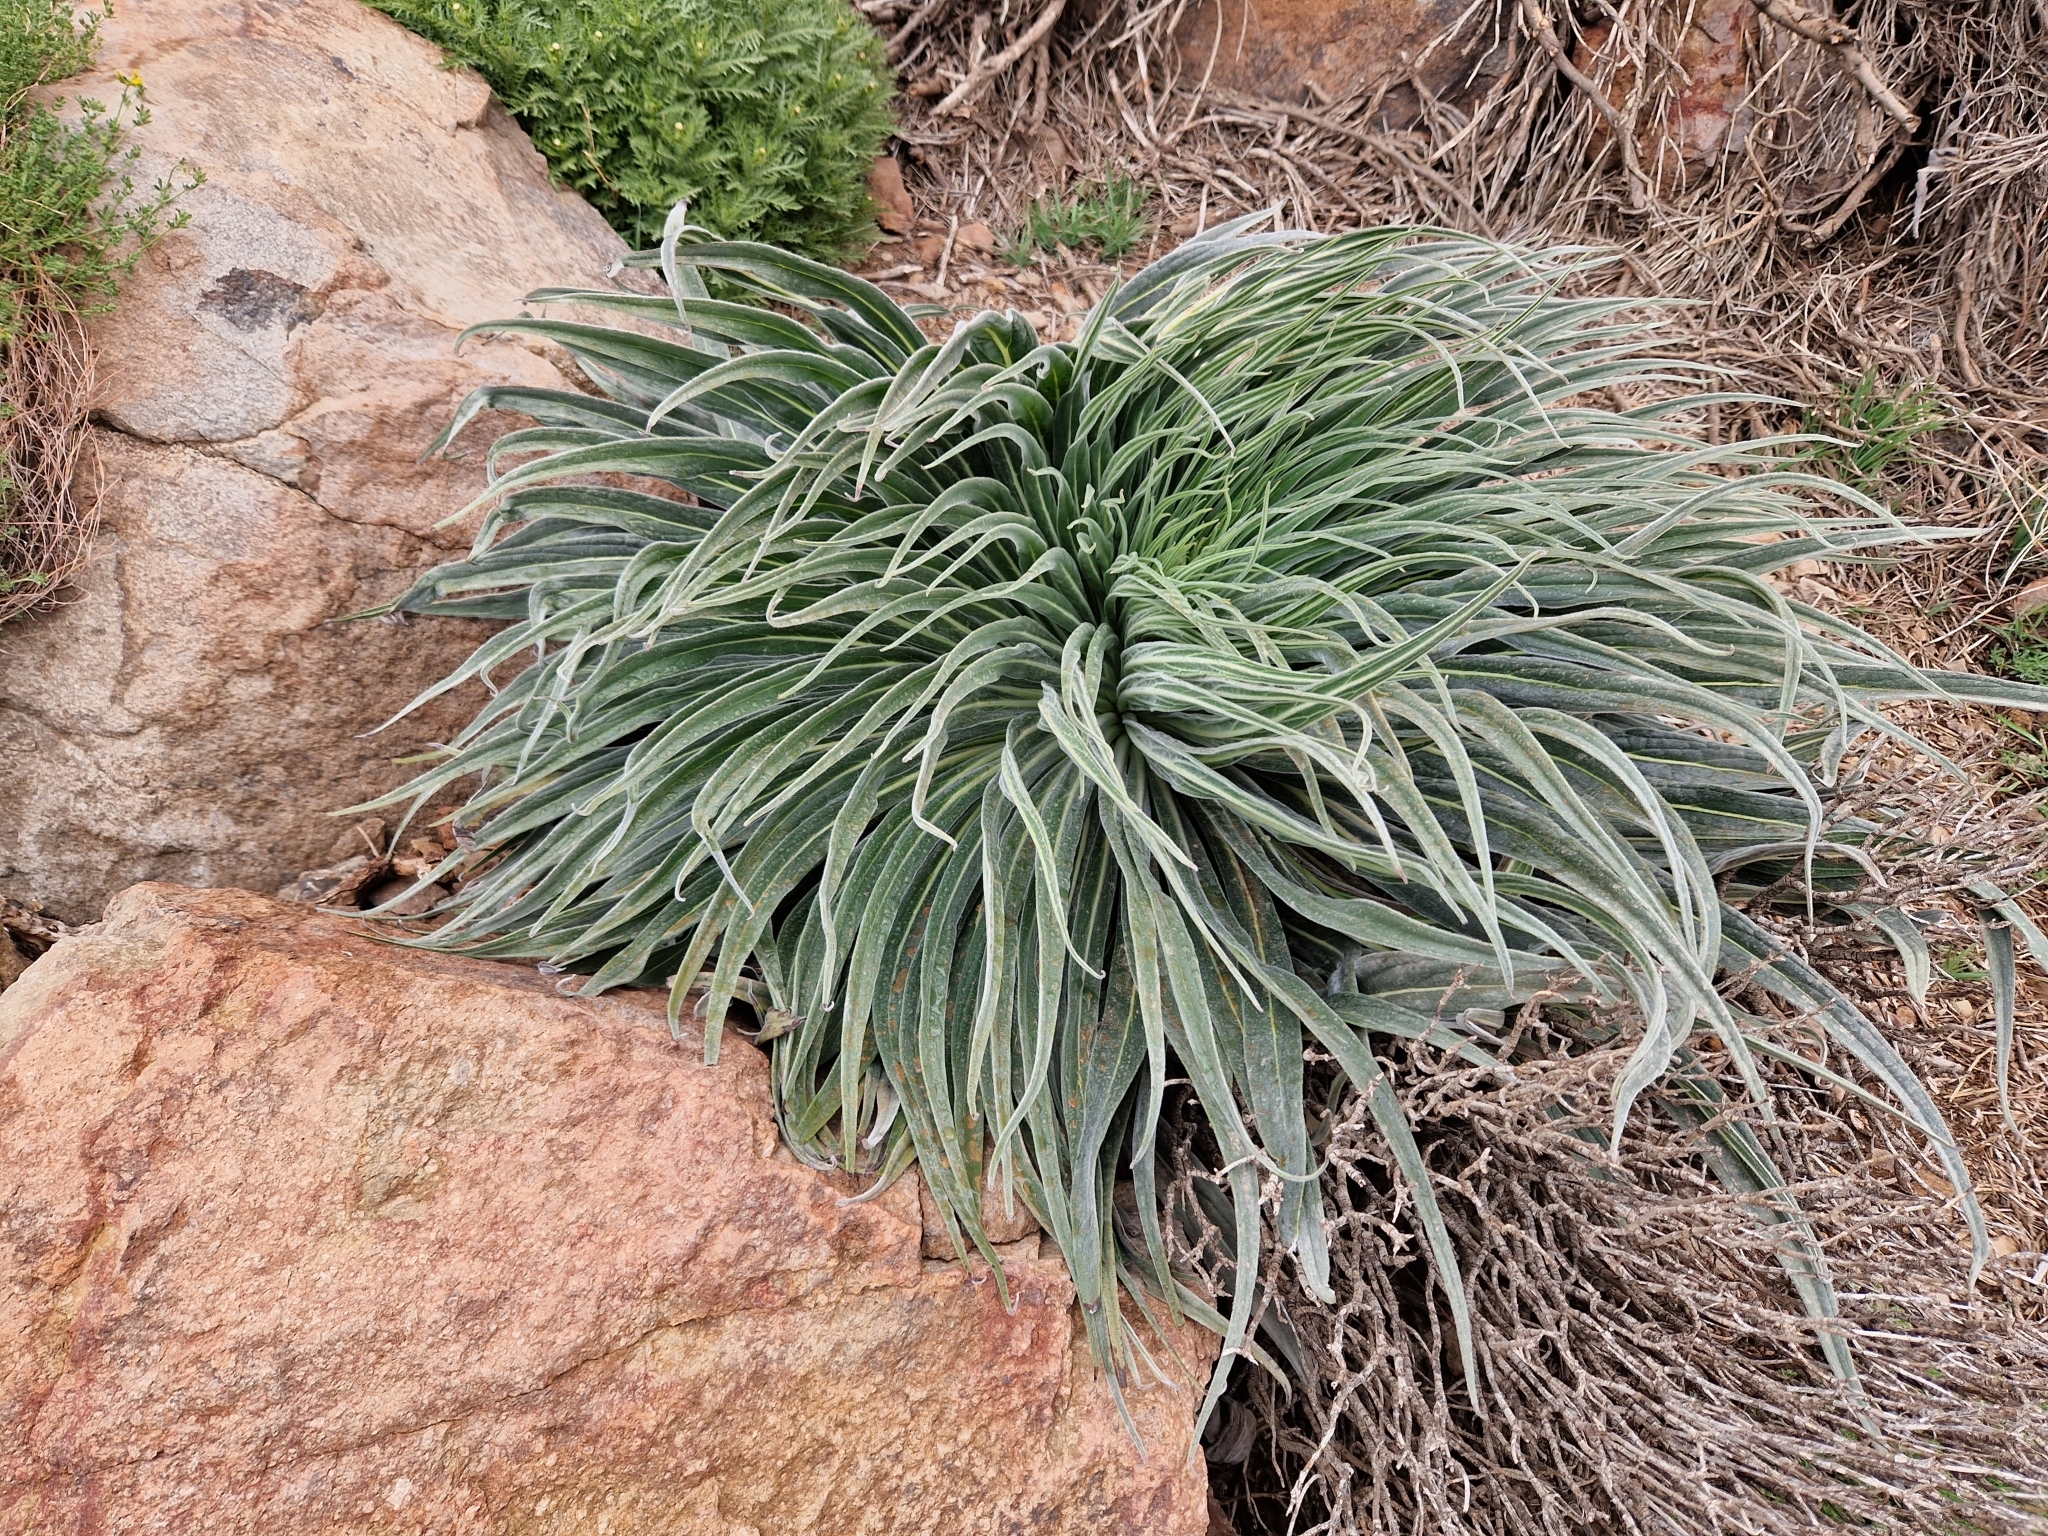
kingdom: Plantae
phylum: Tracheophyta
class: Magnoliopsida
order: Boraginales
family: Boraginaceae
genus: Echium
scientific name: Echium wildpretii
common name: Tower-of-jewels
